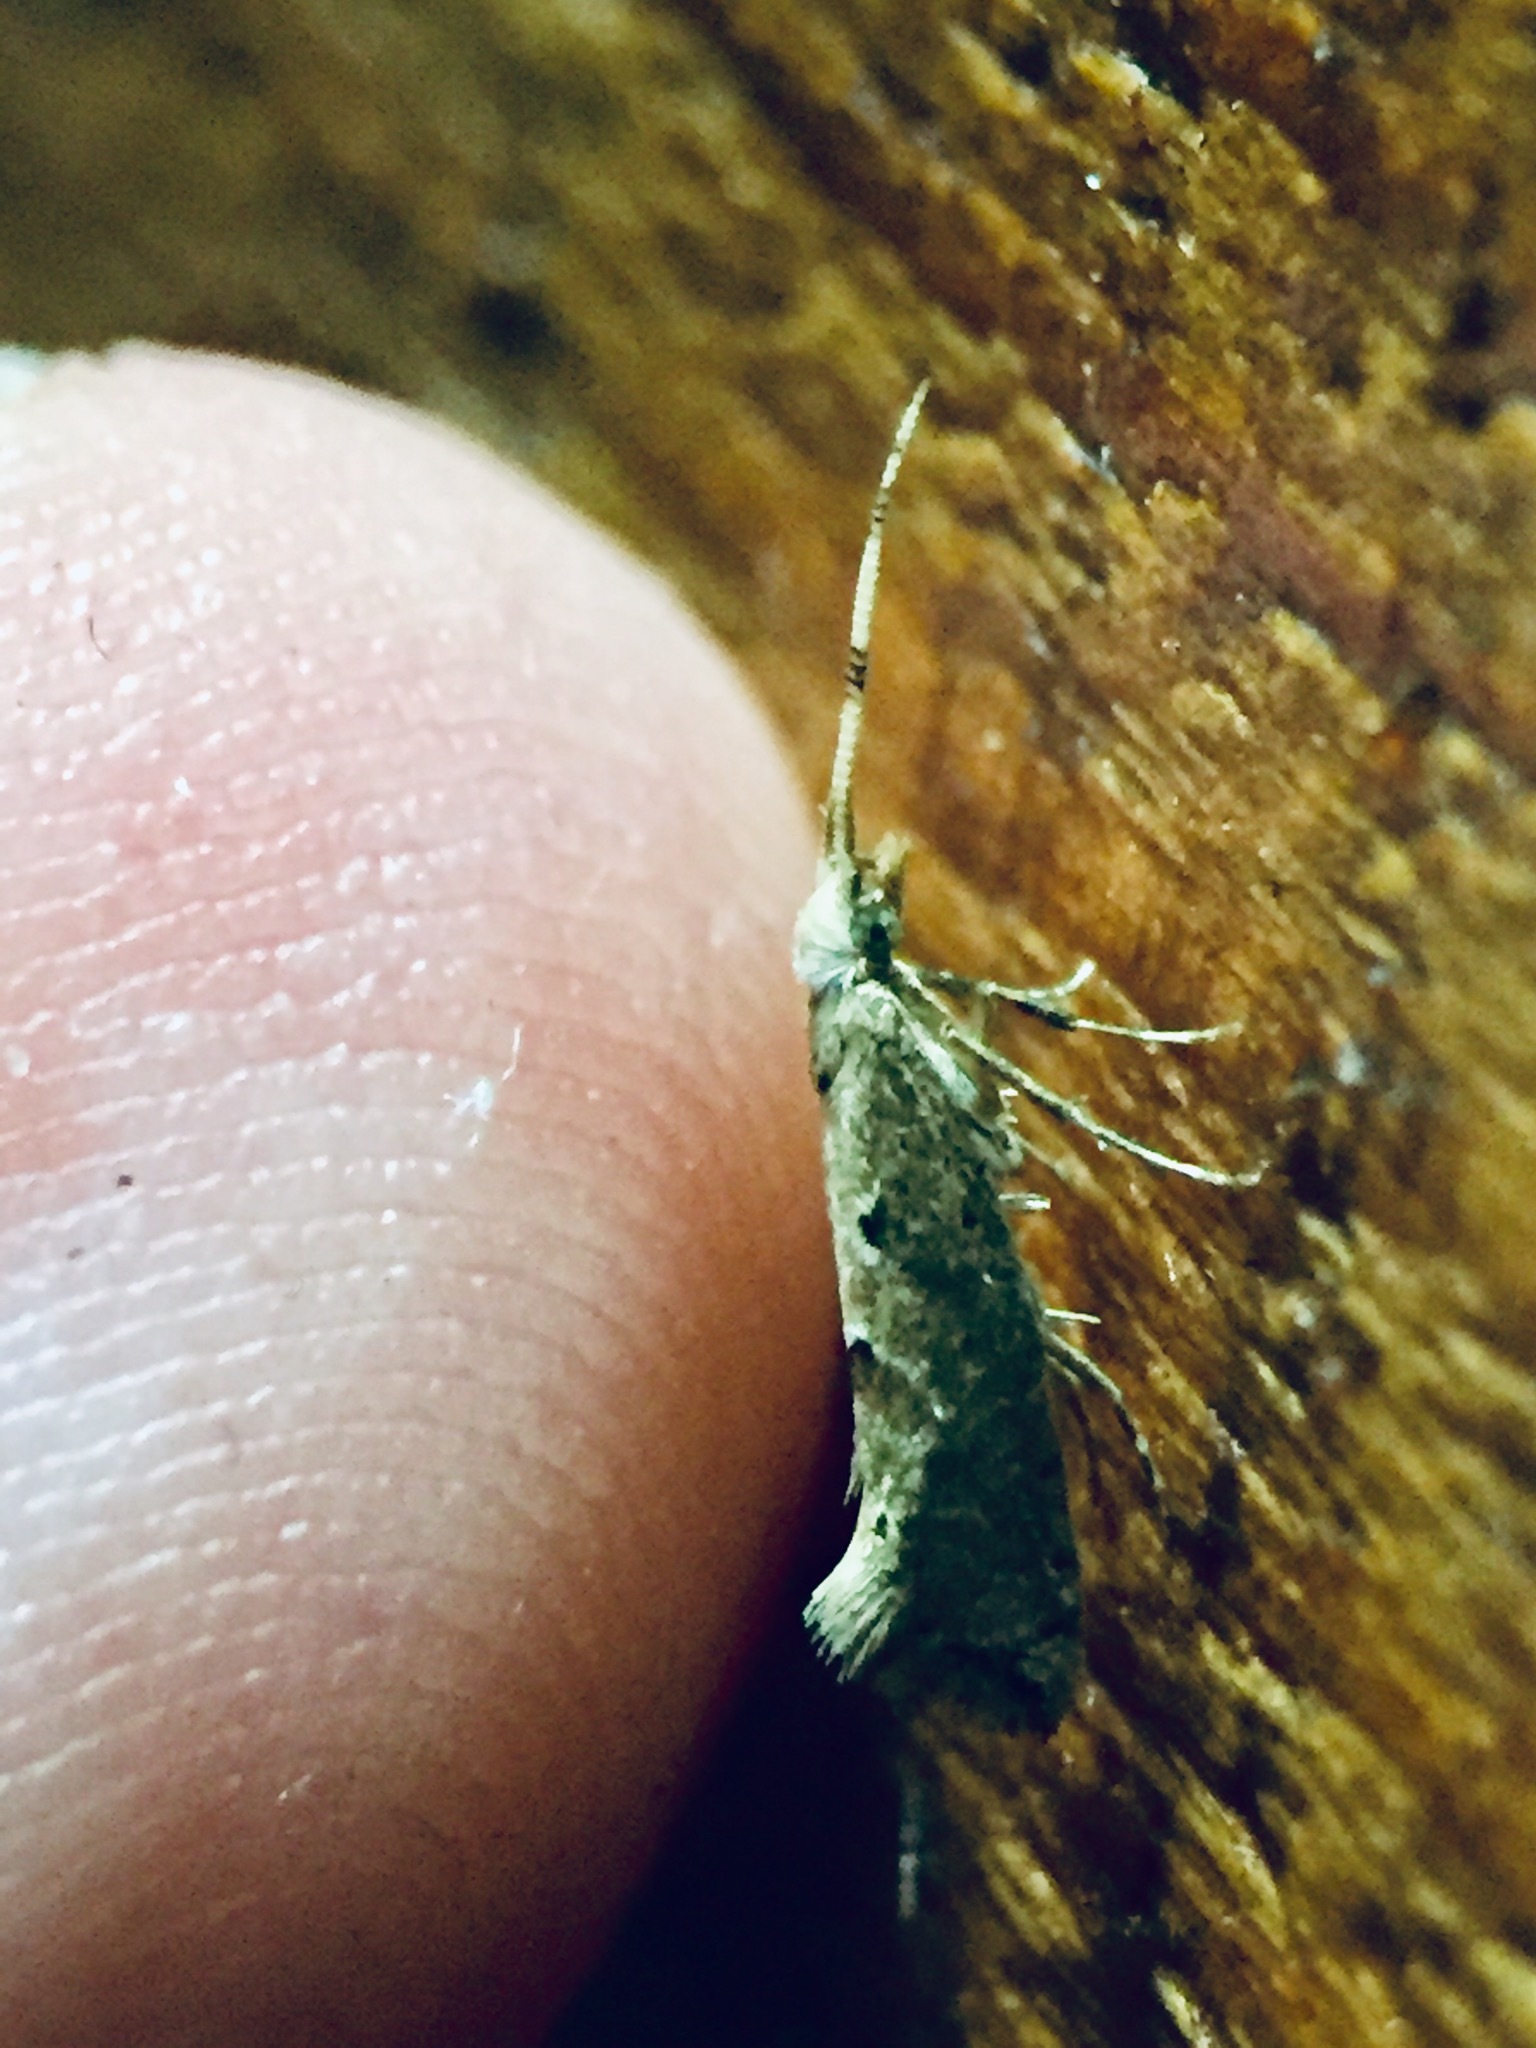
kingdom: Animalia
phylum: Arthropoda
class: Insecta
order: Lepidoptera
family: Plutellidae
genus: Leuroperna
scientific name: Leuroperna sera
